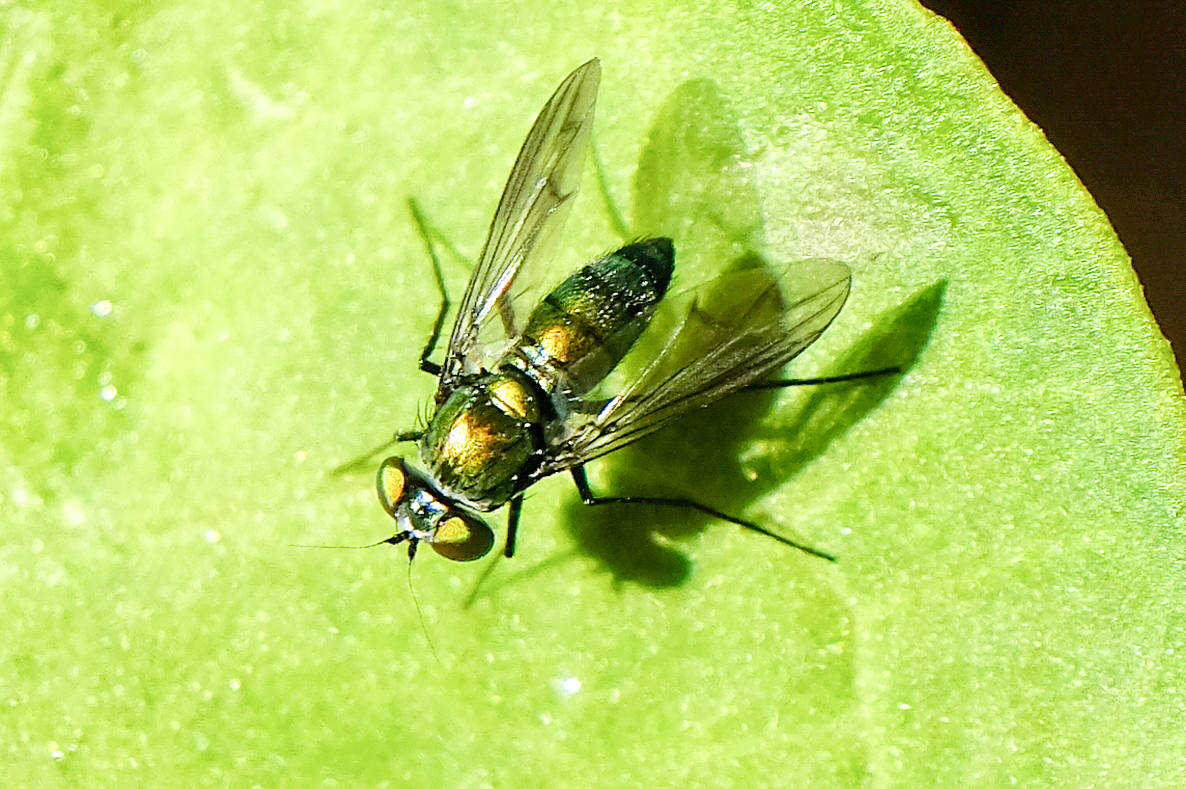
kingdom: Animalia
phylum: Arthropoda
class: Insecta
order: Diptera
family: Dolichopodidae
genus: Condylostylus
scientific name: Condylostylus patibulatus
